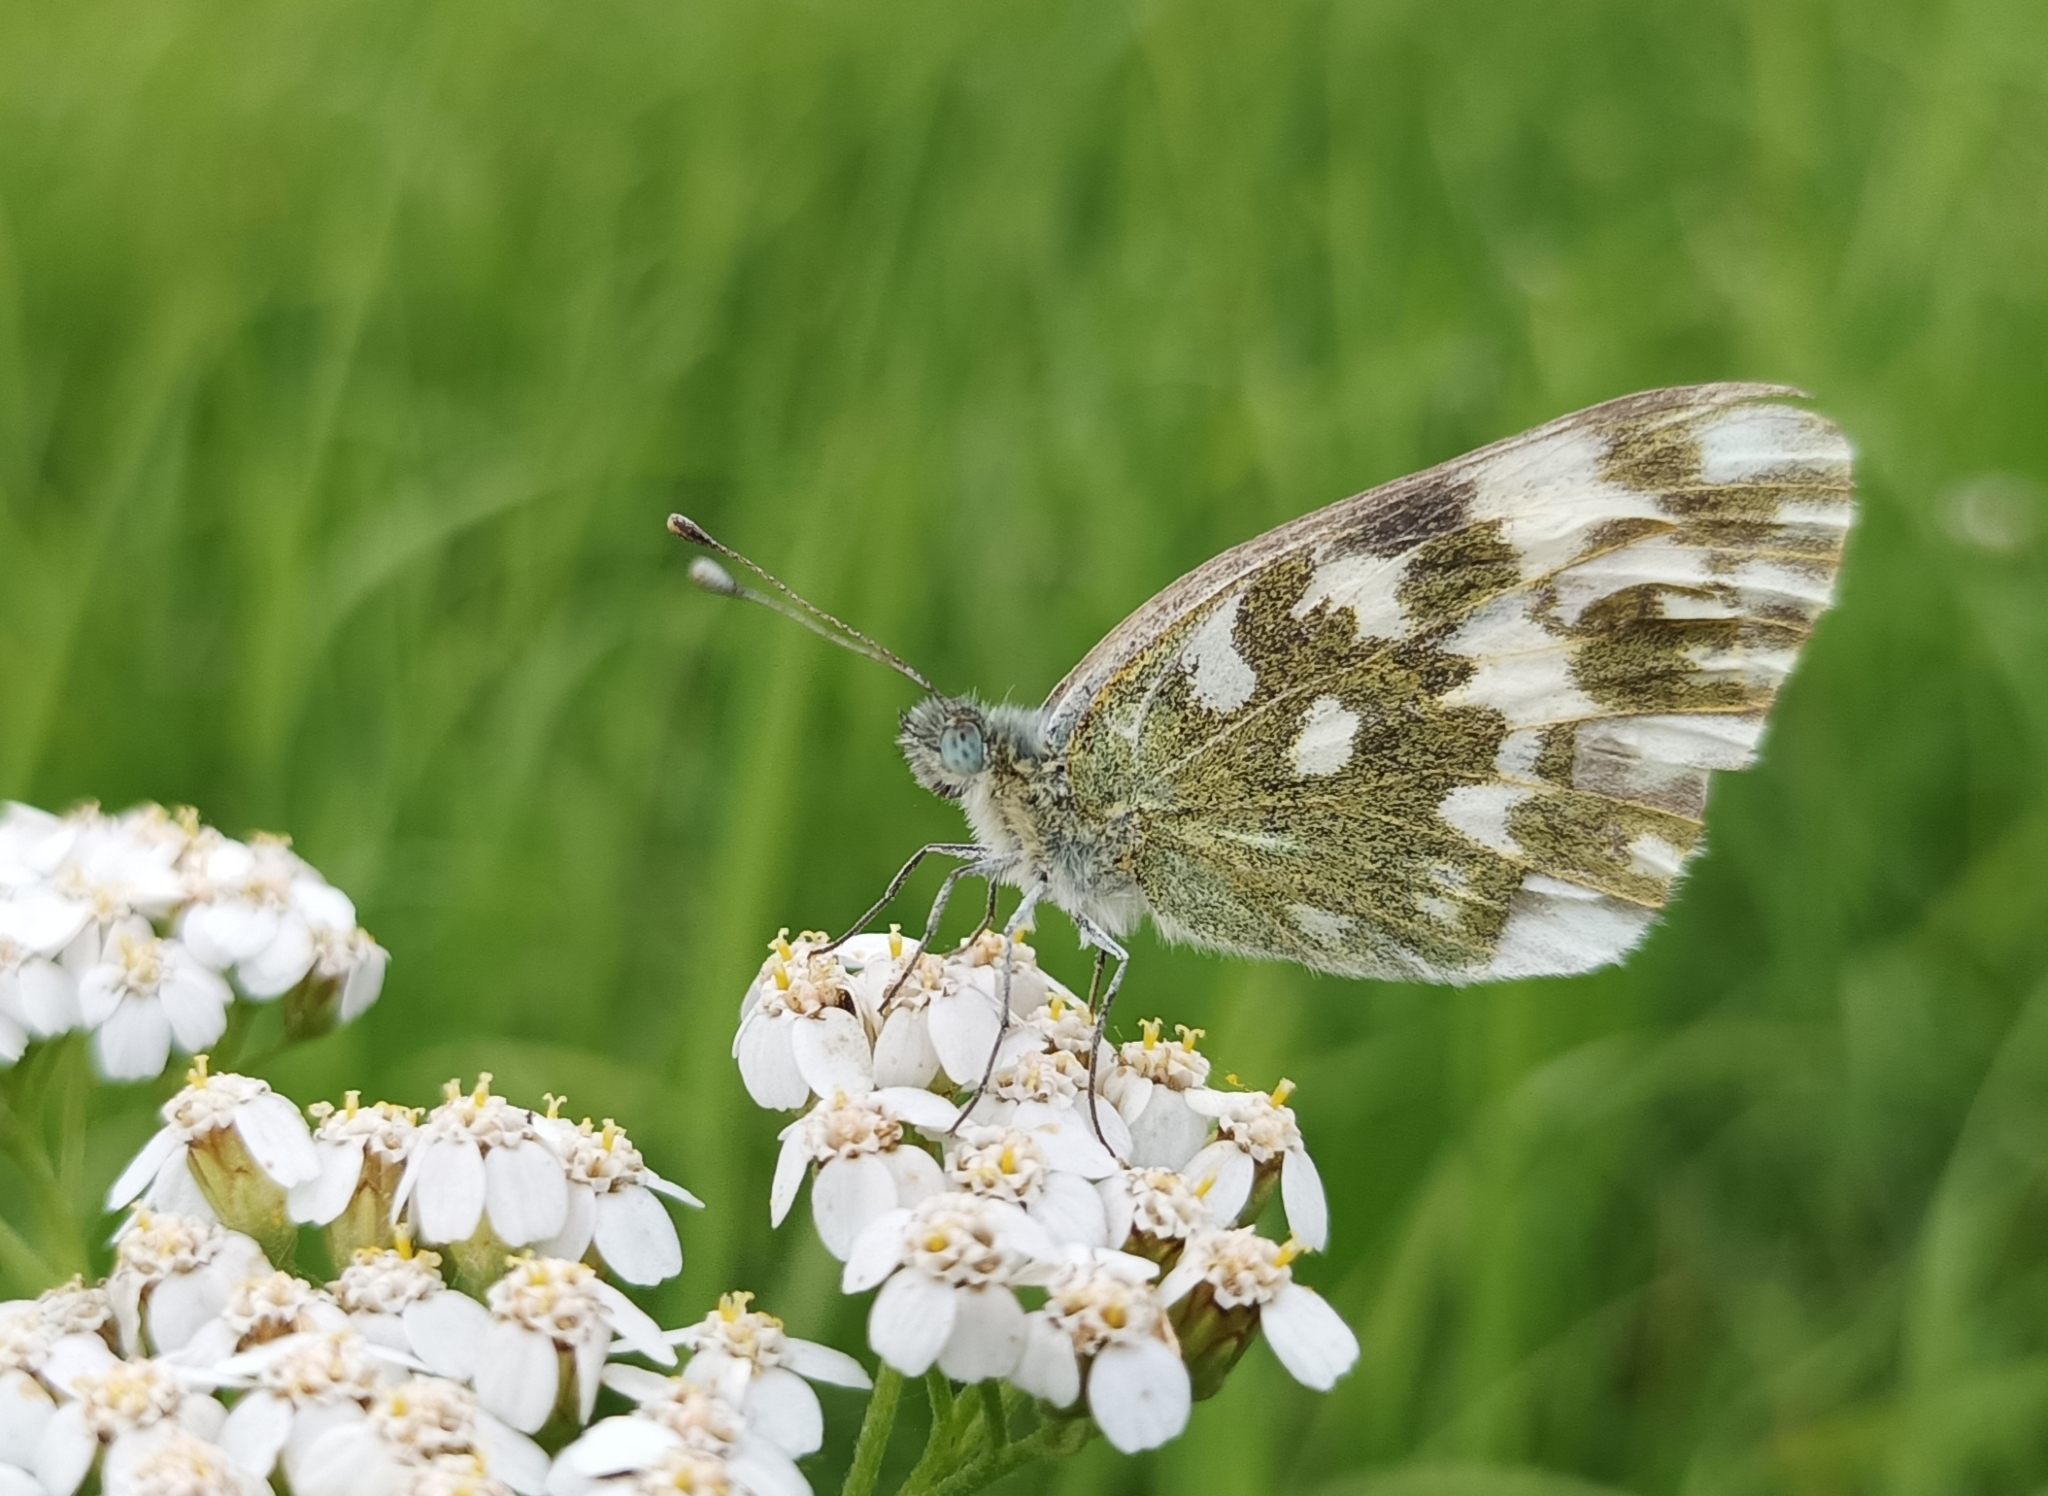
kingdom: Animalia
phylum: Arthropoda
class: Insecta
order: Lepidoptera
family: Pieridae
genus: Pontia
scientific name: Pontia edusa
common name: Eastern bath white
